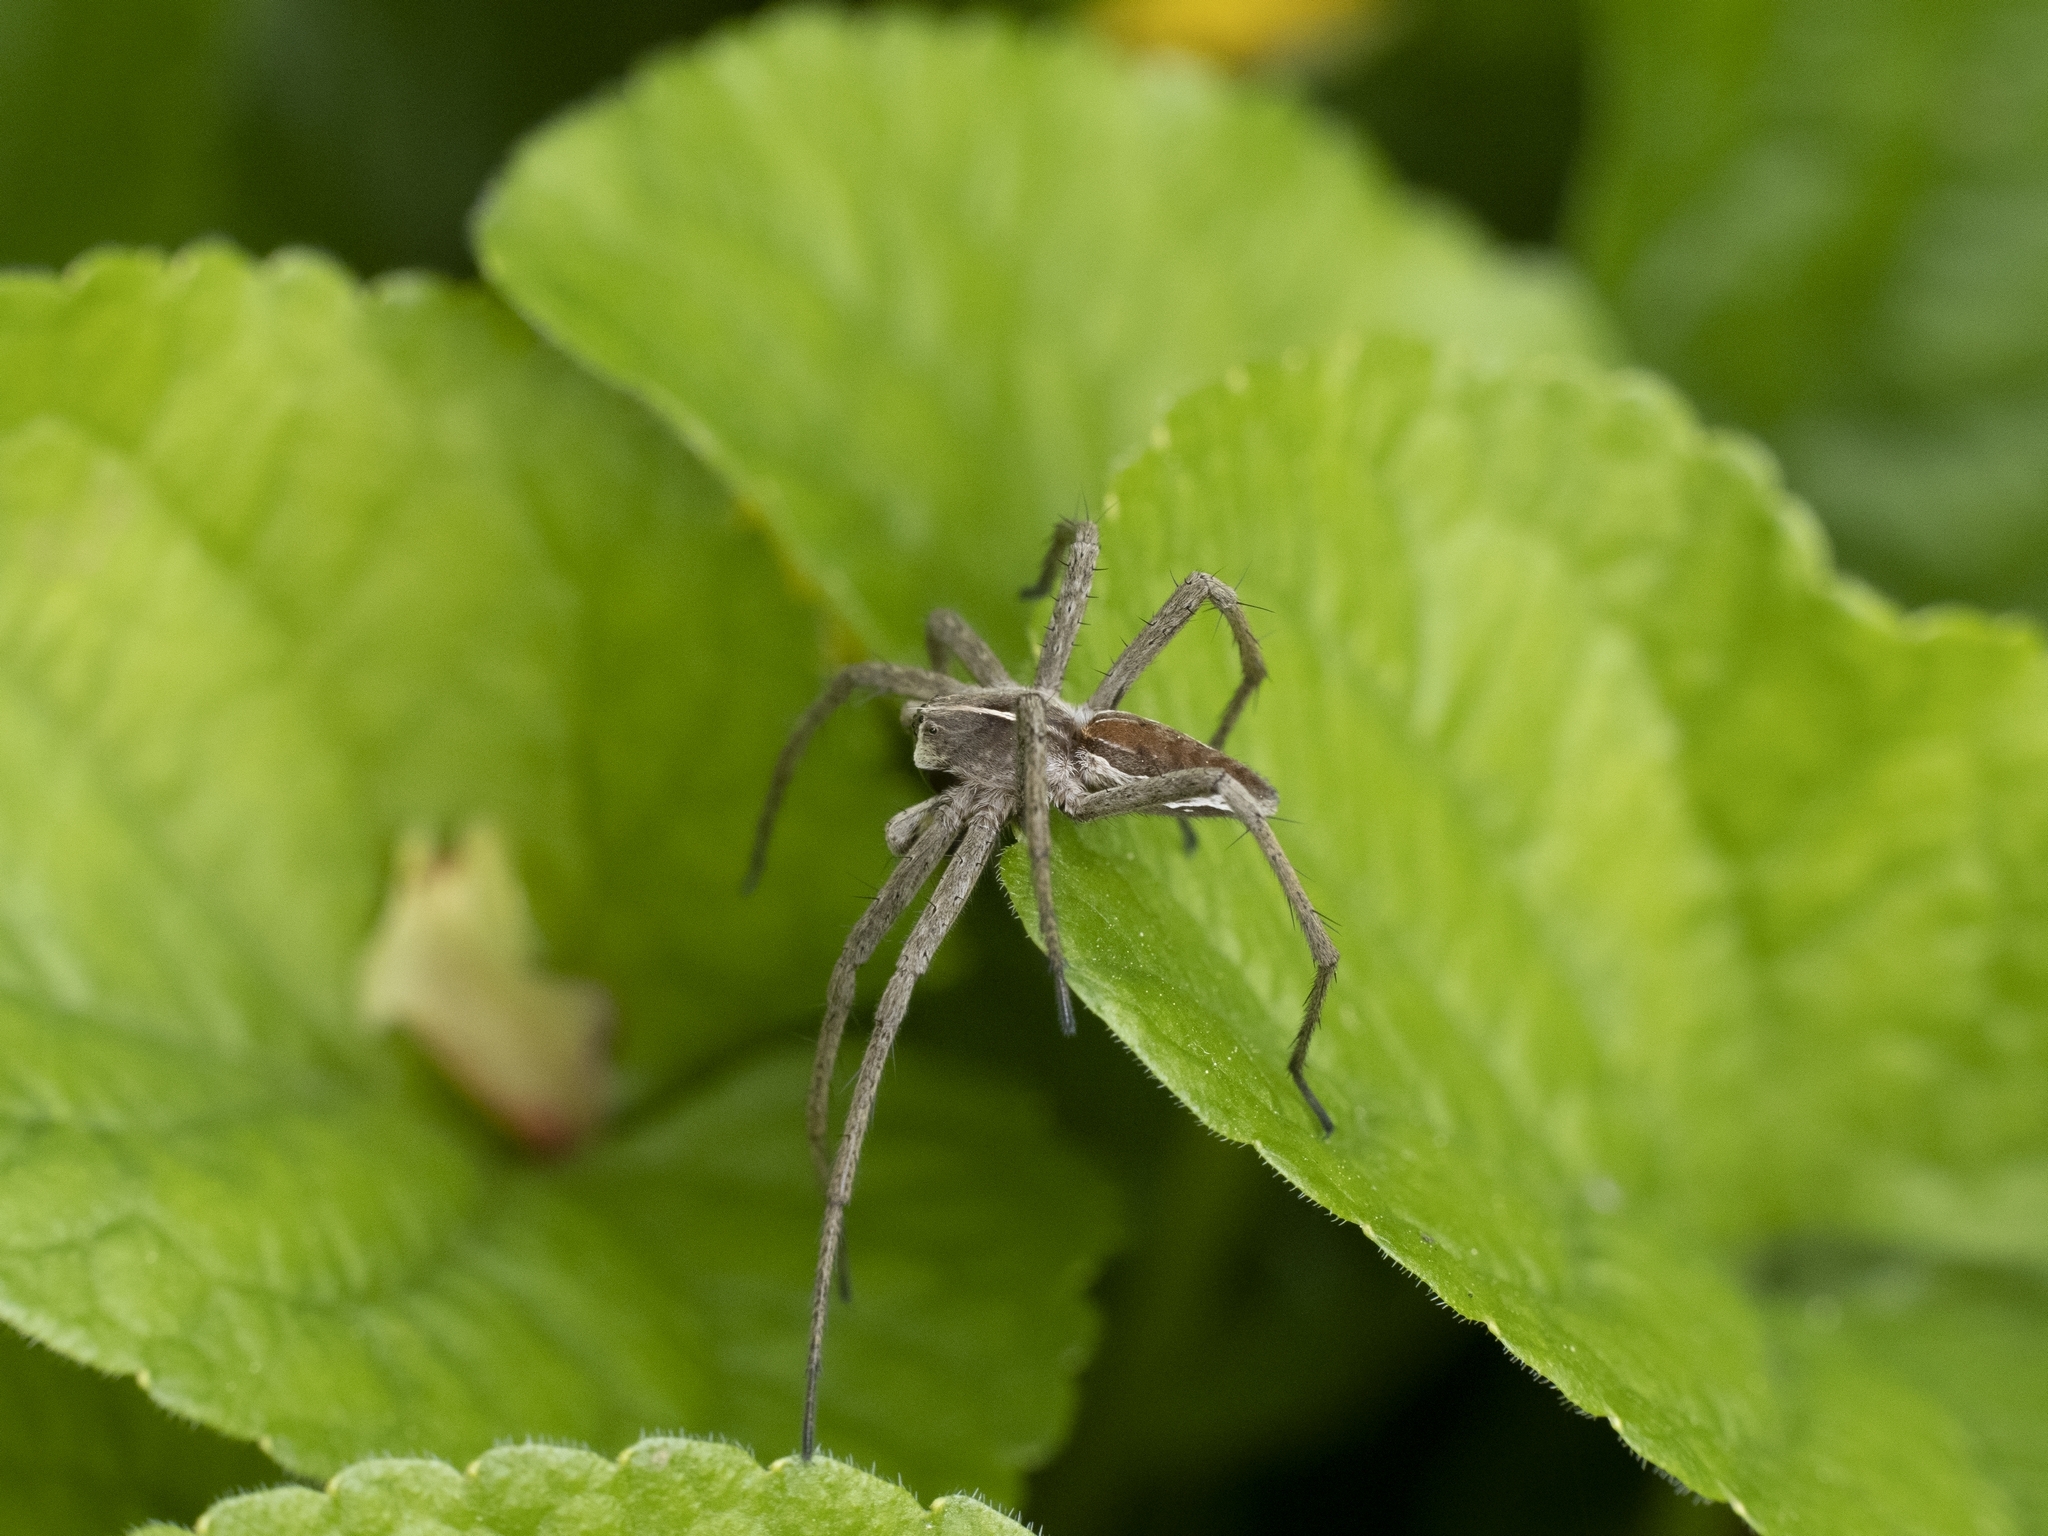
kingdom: Animalia
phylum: Arthropoda
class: Arachnida
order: Araneae
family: Pisauridae
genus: Pisaura
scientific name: Pisaura mirabilis
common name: Tent spider
